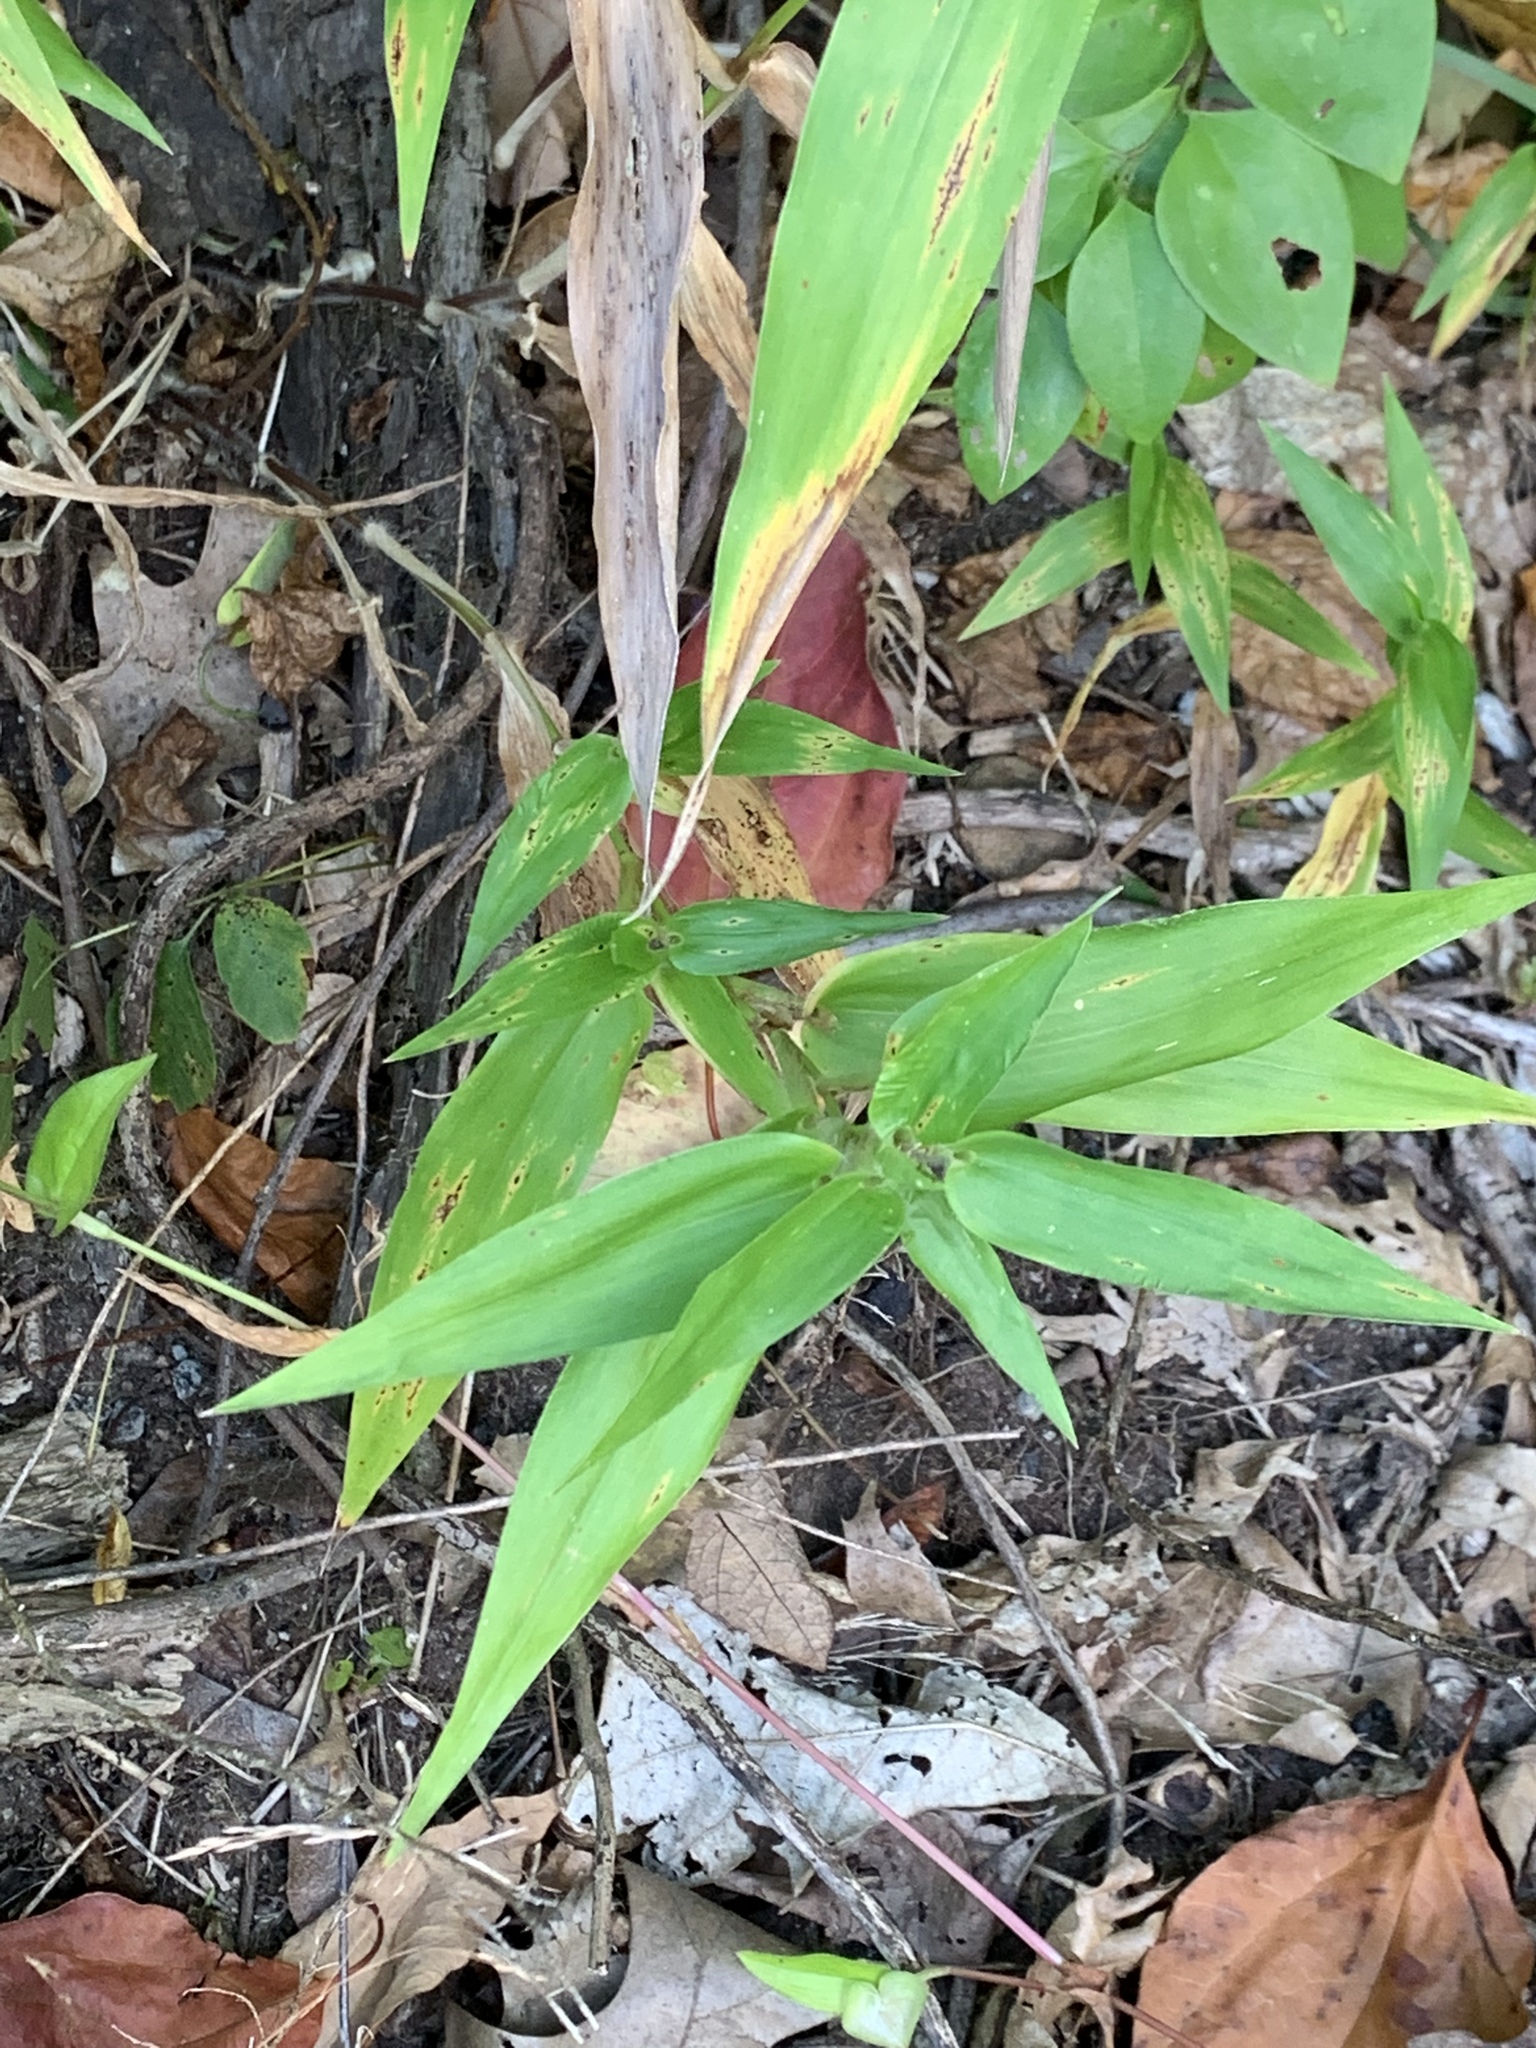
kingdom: Plantae
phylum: Tracheophyta
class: Liliopsida
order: Poales
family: Poaceae
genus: Dichanthelium
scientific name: Dichanthelium clandestinum
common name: Deer-tongue grass
